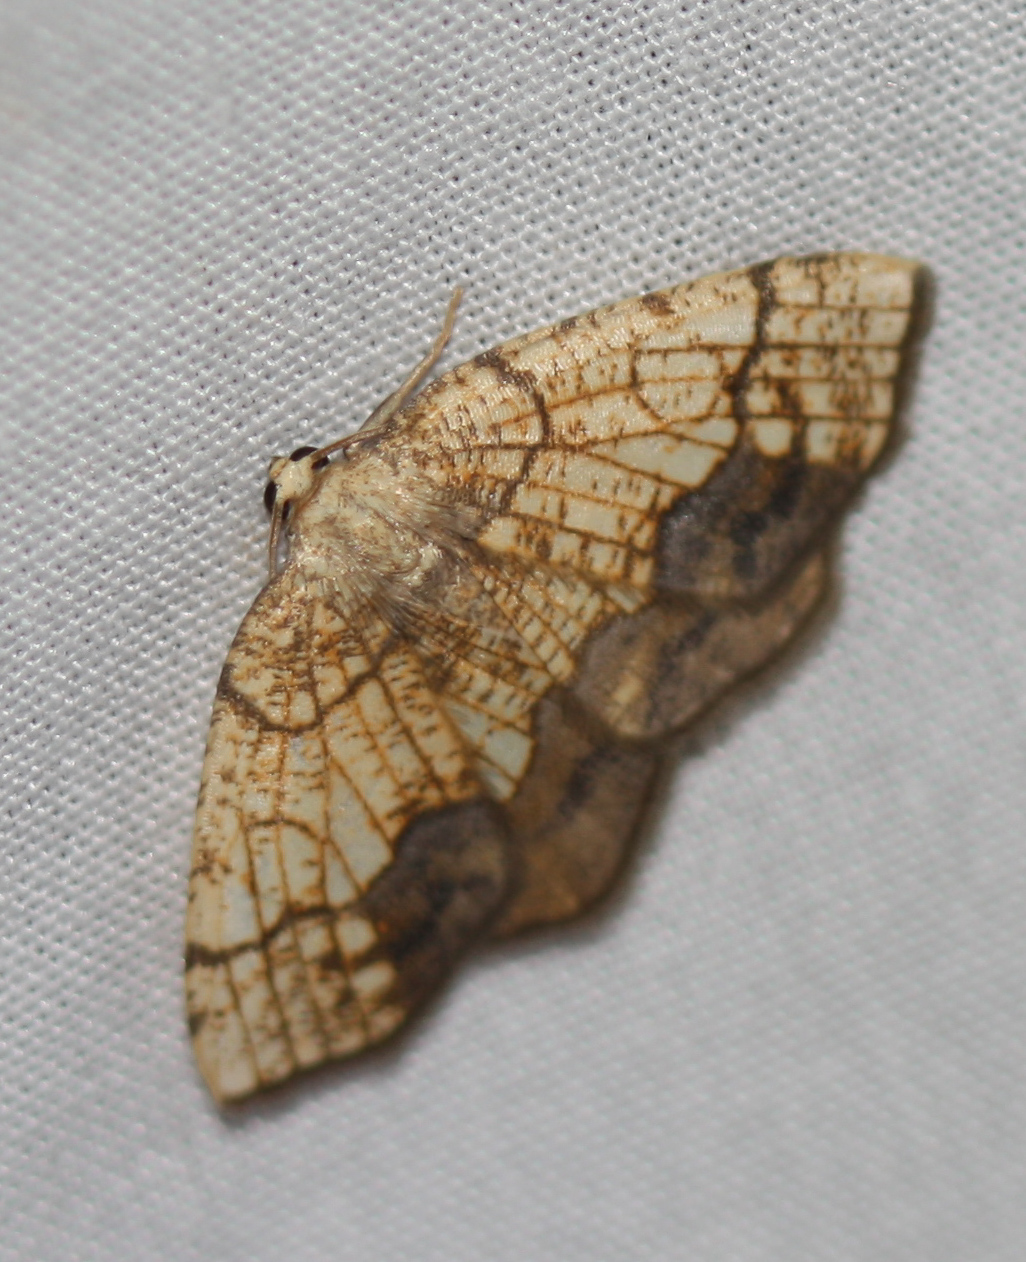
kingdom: Animalia
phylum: Arthropoda
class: Insecta
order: Lepidoptera
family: Geometridae
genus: Nematocampa
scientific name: Nematocampa resistaria
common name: Horned spanworm moth
